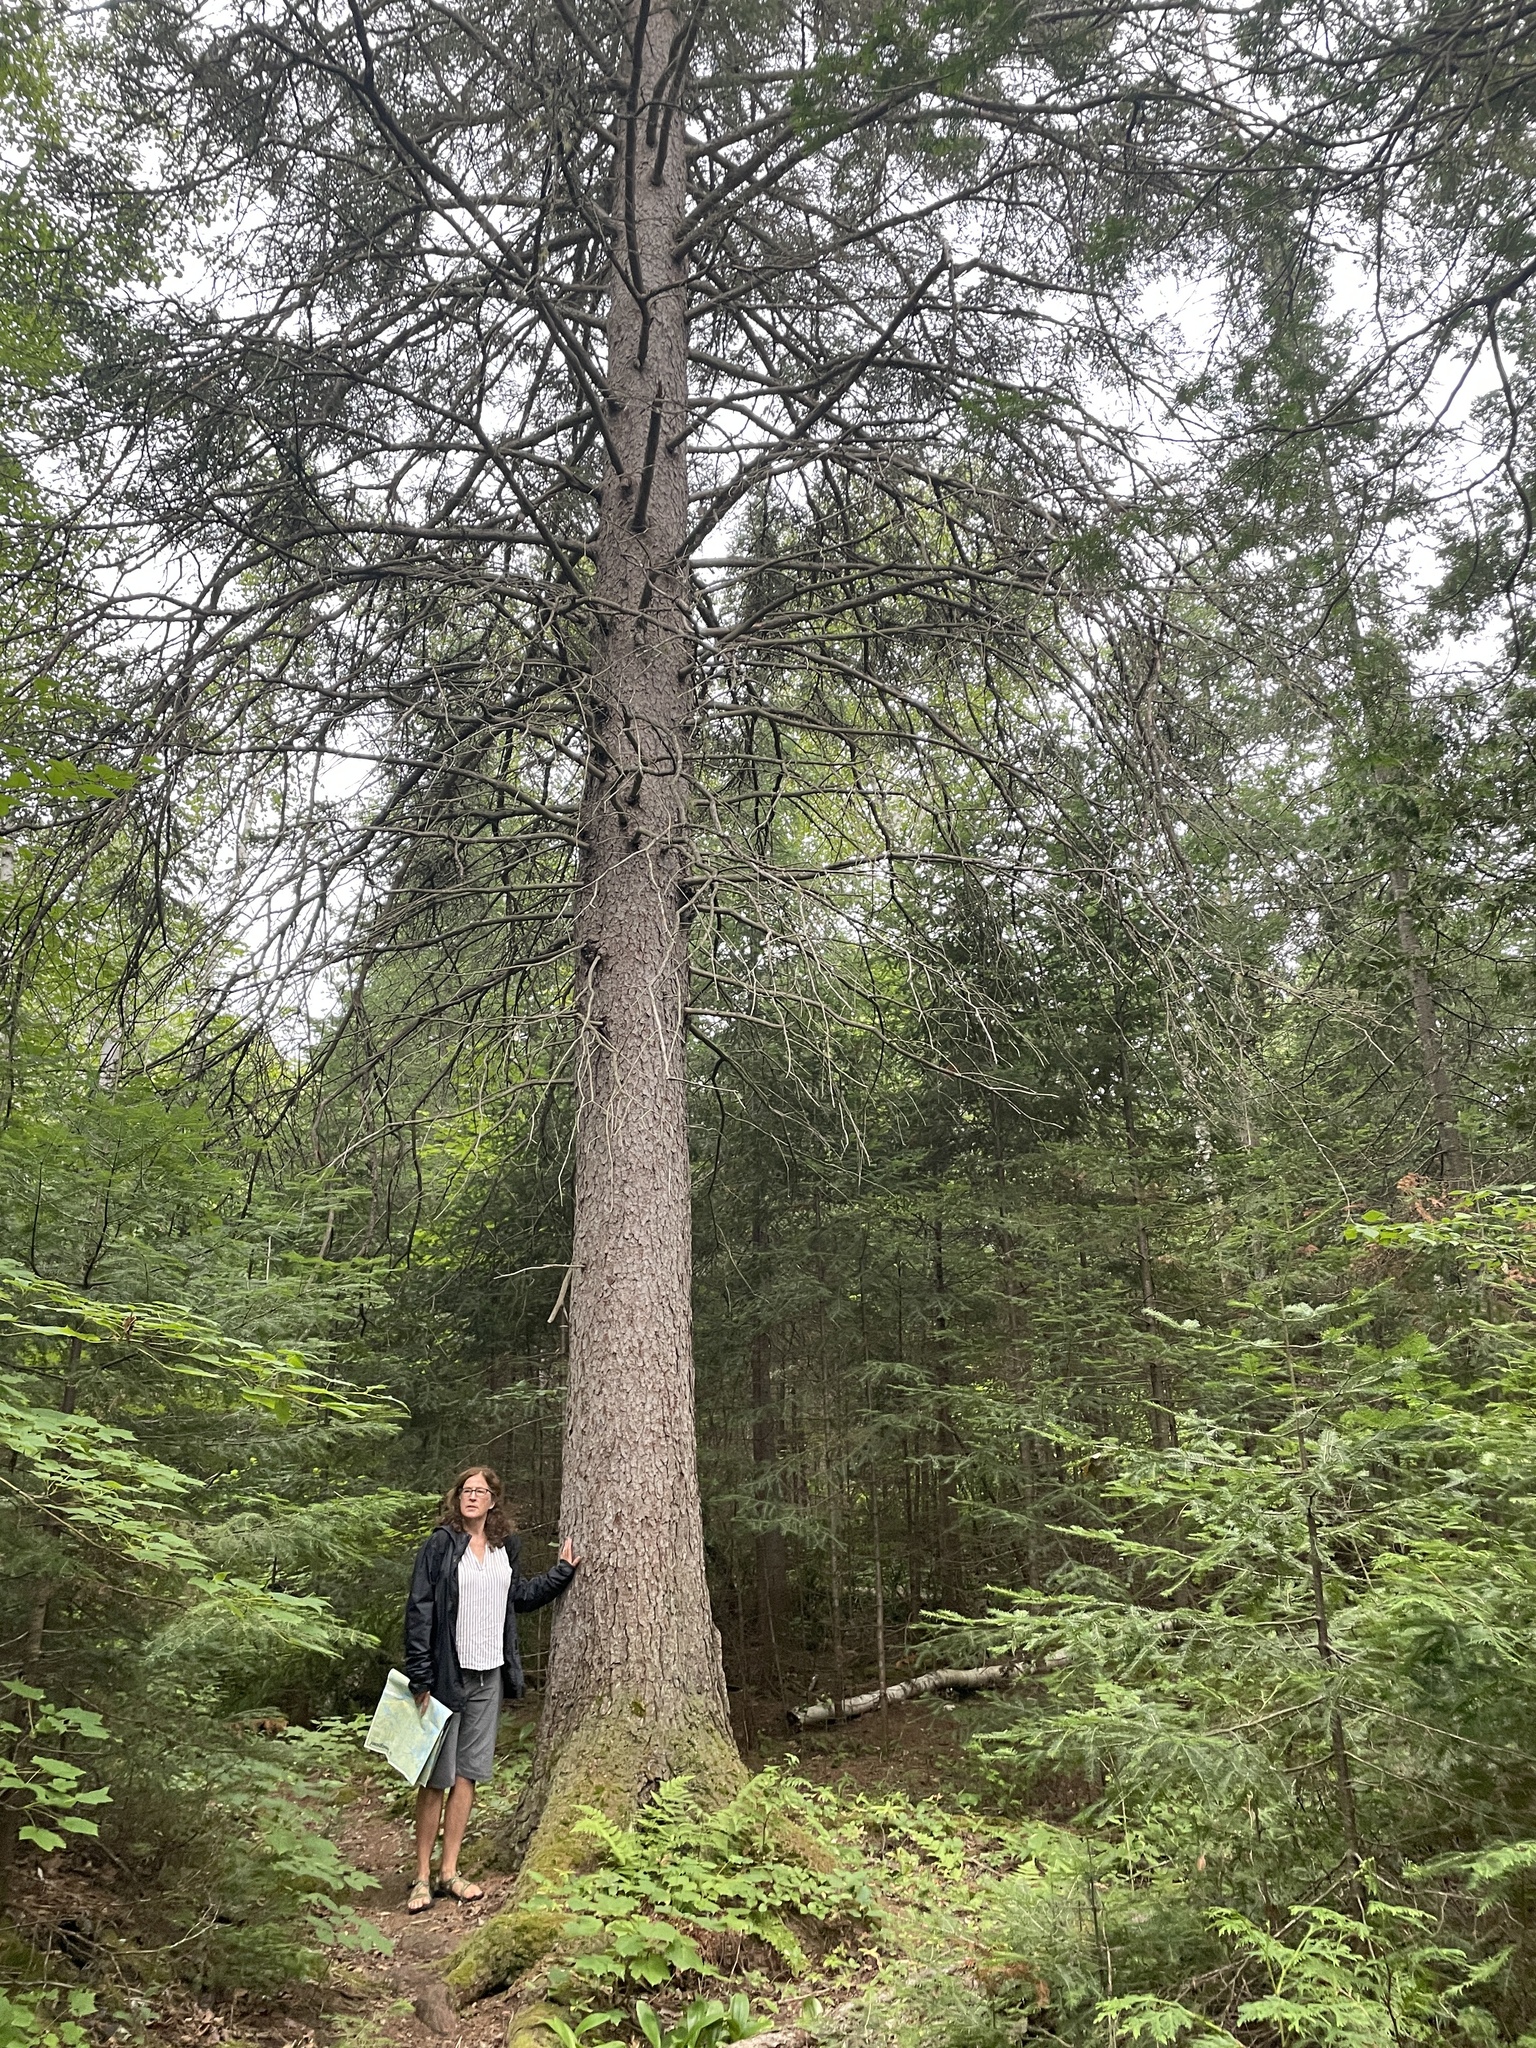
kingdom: Plantae
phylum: Tracheophyta
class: Pinopsida
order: Pinales
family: Pinaceae
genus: Picea
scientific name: Picea glauca
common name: White spruce
